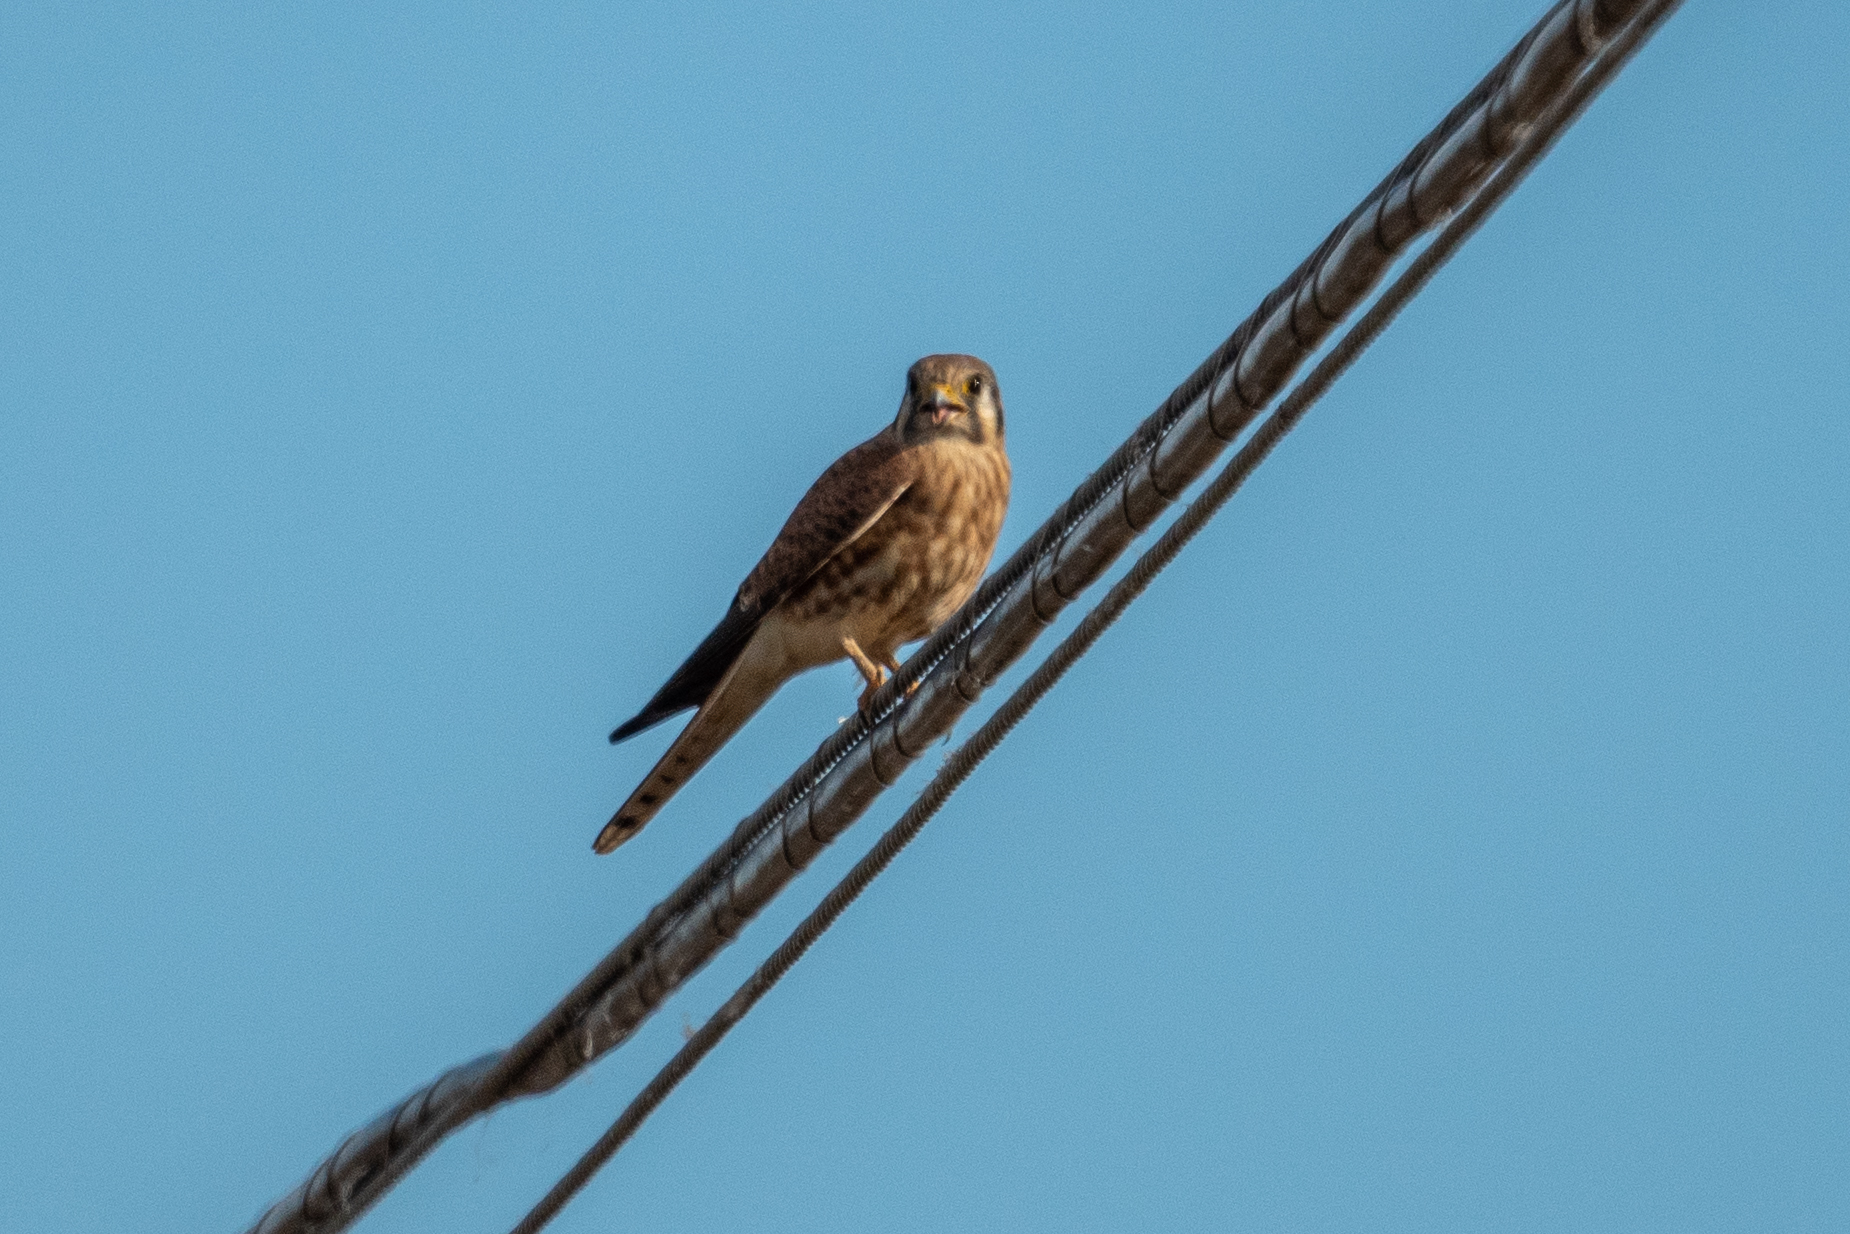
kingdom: Animalia
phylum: Chordata
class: Aves
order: Falconiformes
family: Falconidae
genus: Falco
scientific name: Falco sparverius
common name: American kestrel
